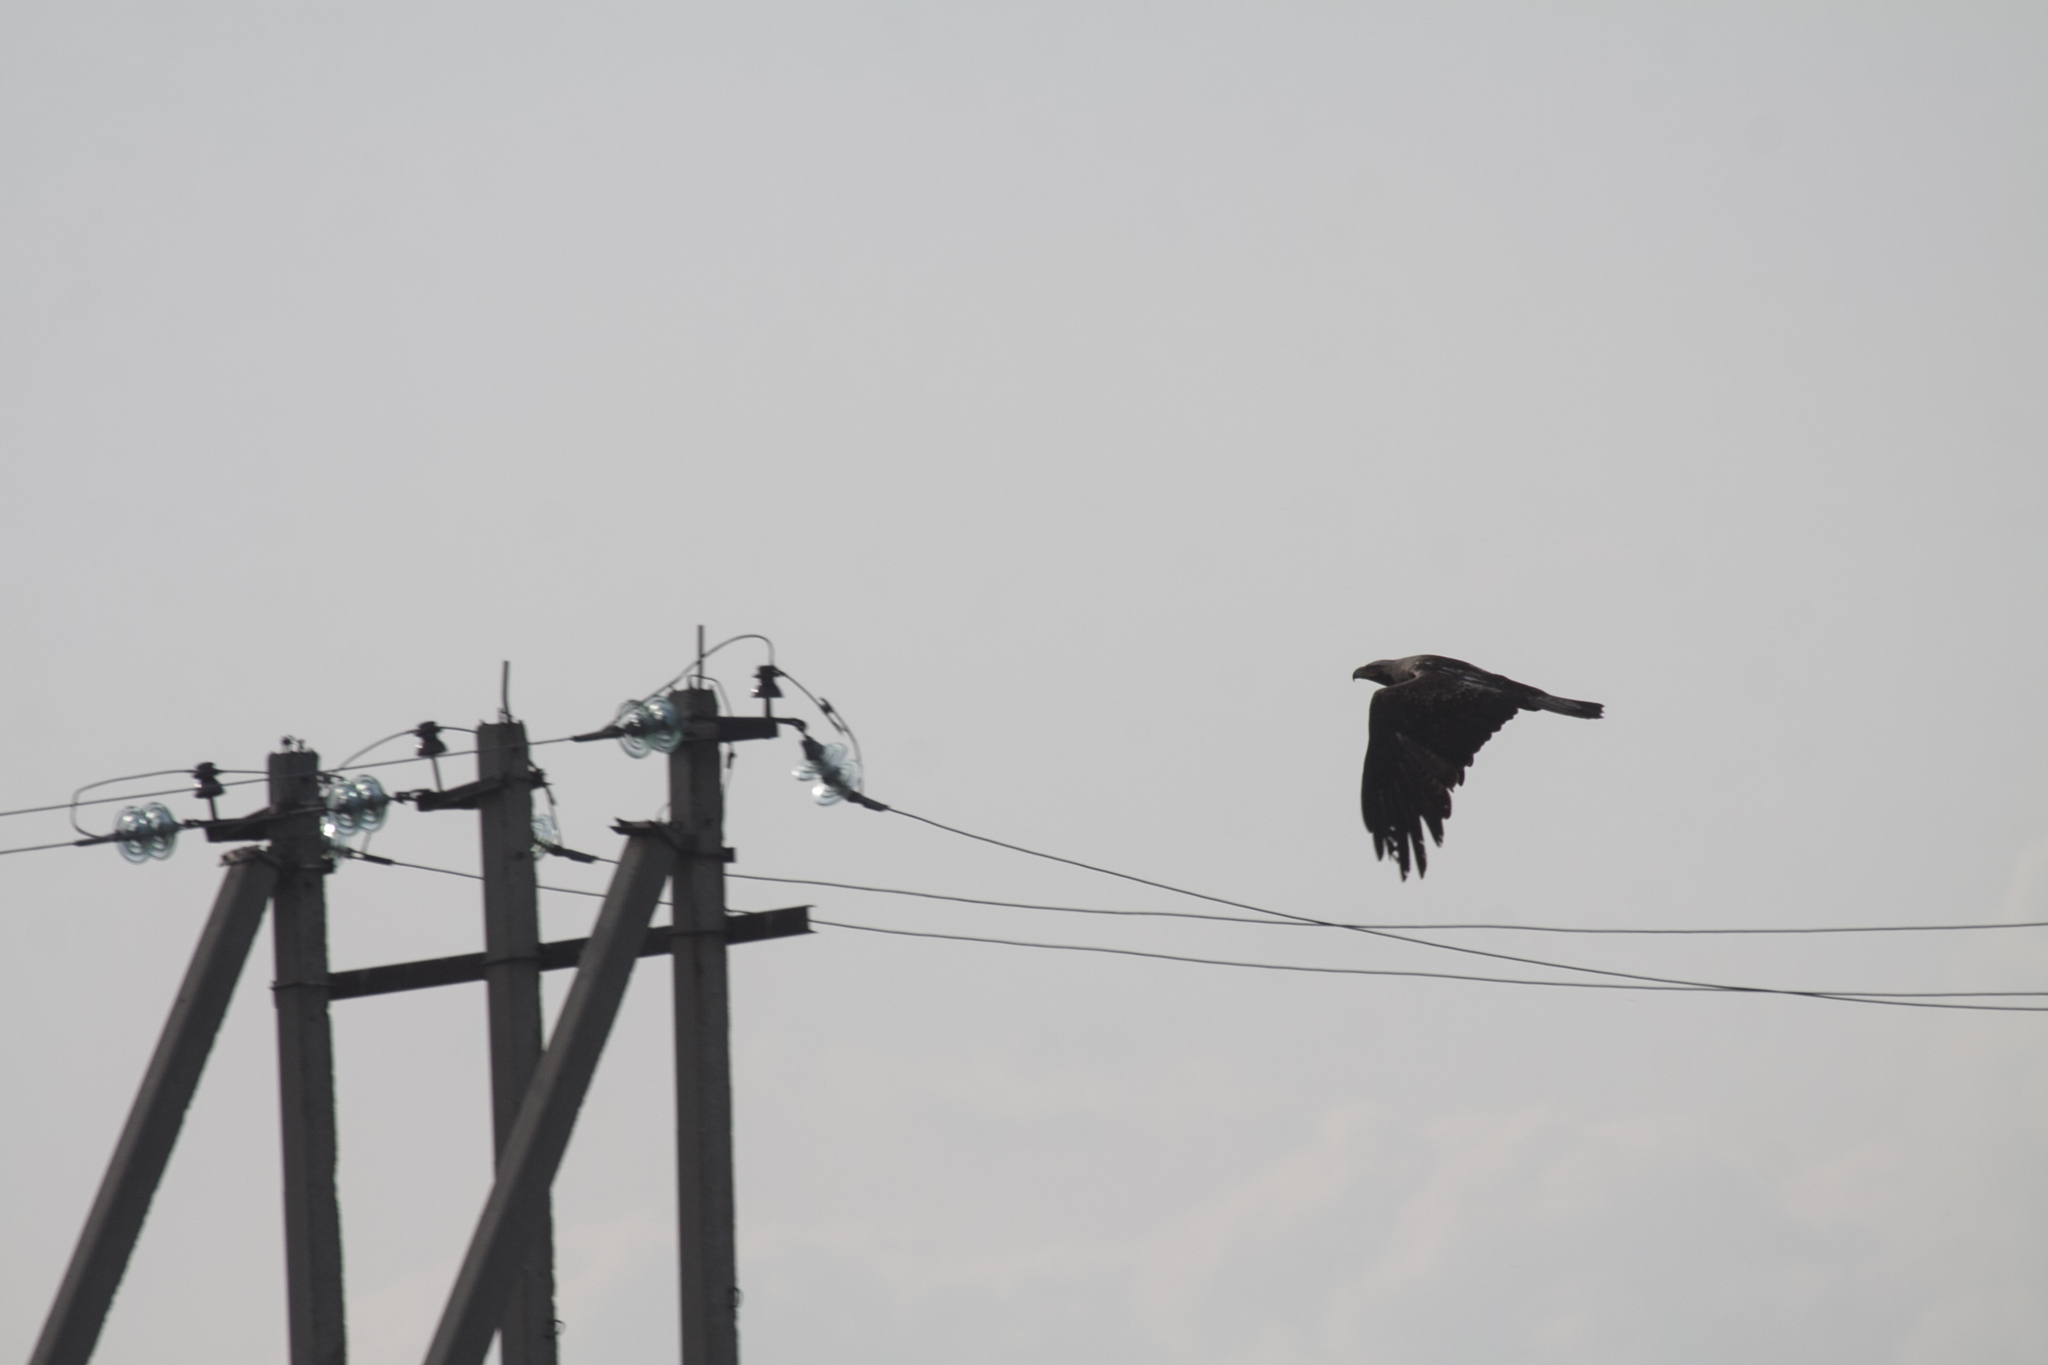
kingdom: Animalia
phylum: Chordata
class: Aves
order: Accipitriformes
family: Accipitridae
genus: Aquila
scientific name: Aquila heliaca
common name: Eastern imperial eagle
